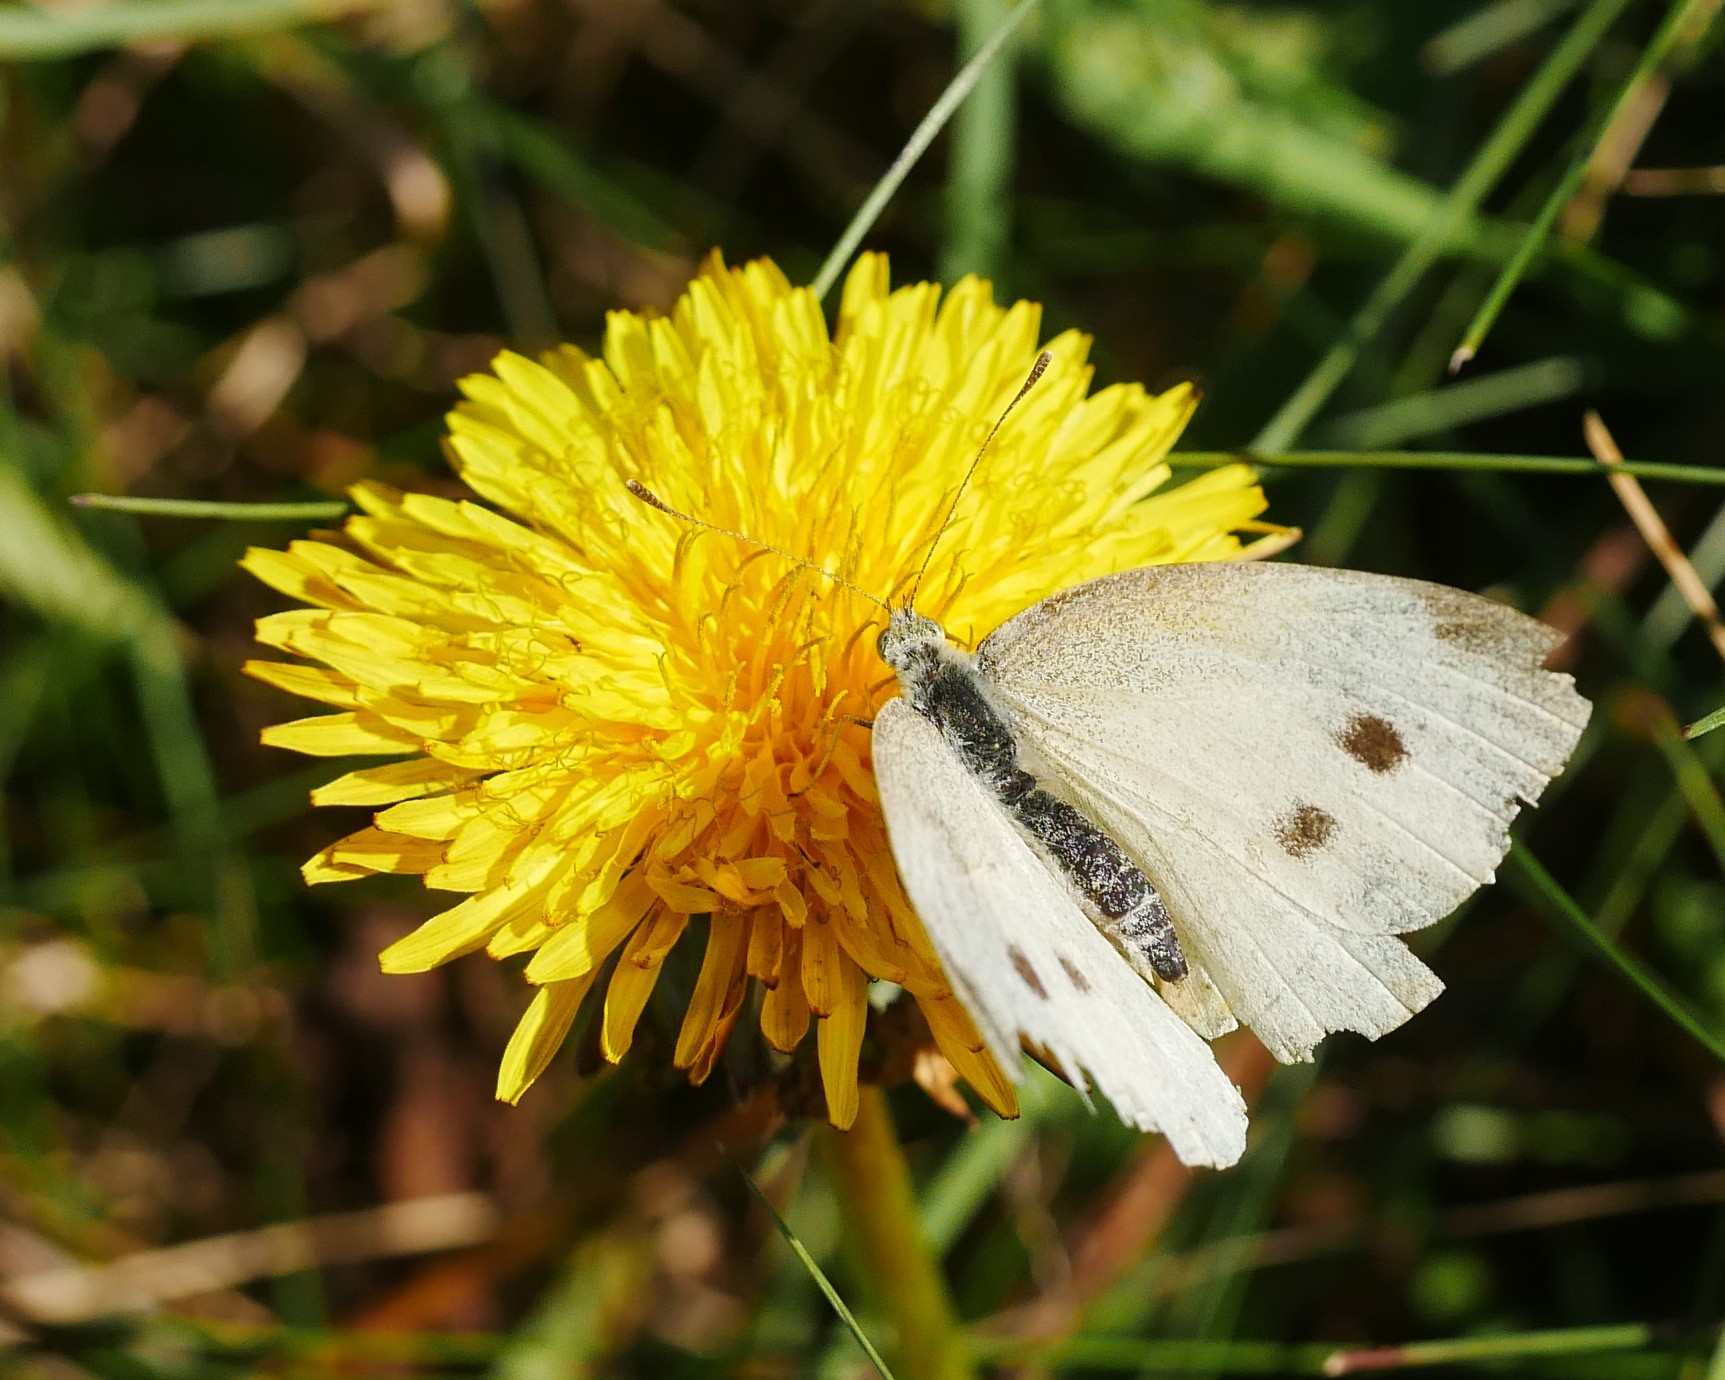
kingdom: Animalia
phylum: Arthropoda
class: Insecta
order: Lepidoptera
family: Pieridae
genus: Pieris
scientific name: Pieris rapae
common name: Small white
